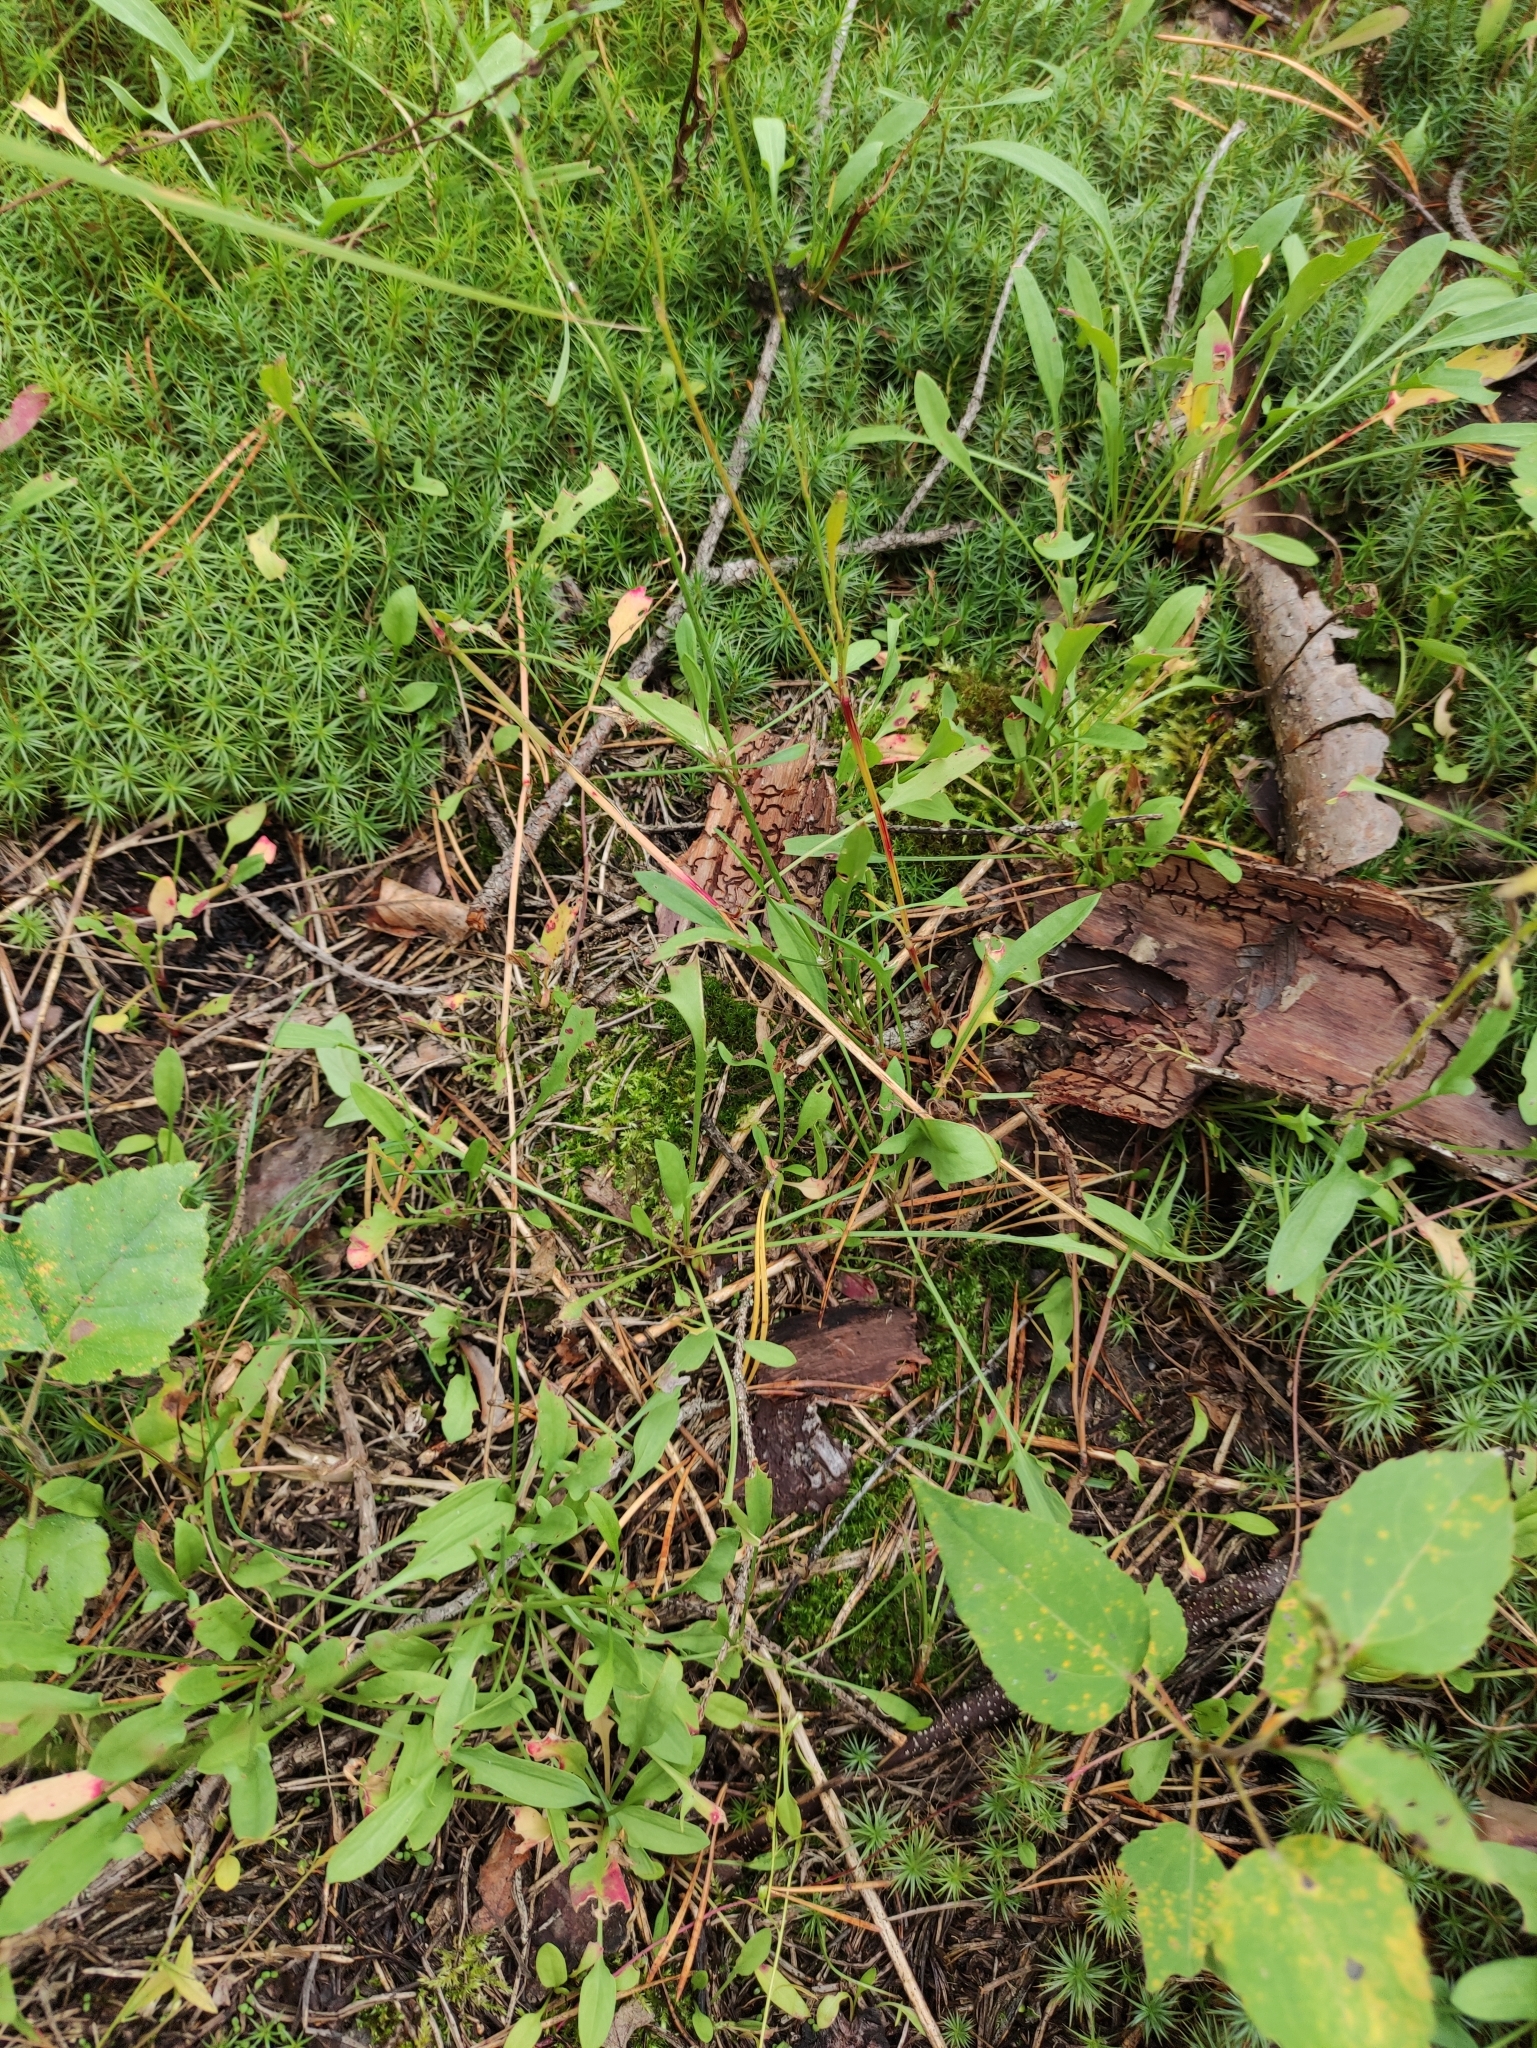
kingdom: Plantae
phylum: Tracheophyta
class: Magnoliopsida
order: Caryophyllales
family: Polygonaceae
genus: Rumex
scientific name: Rumex acetosella
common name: Common sheep sorrel
